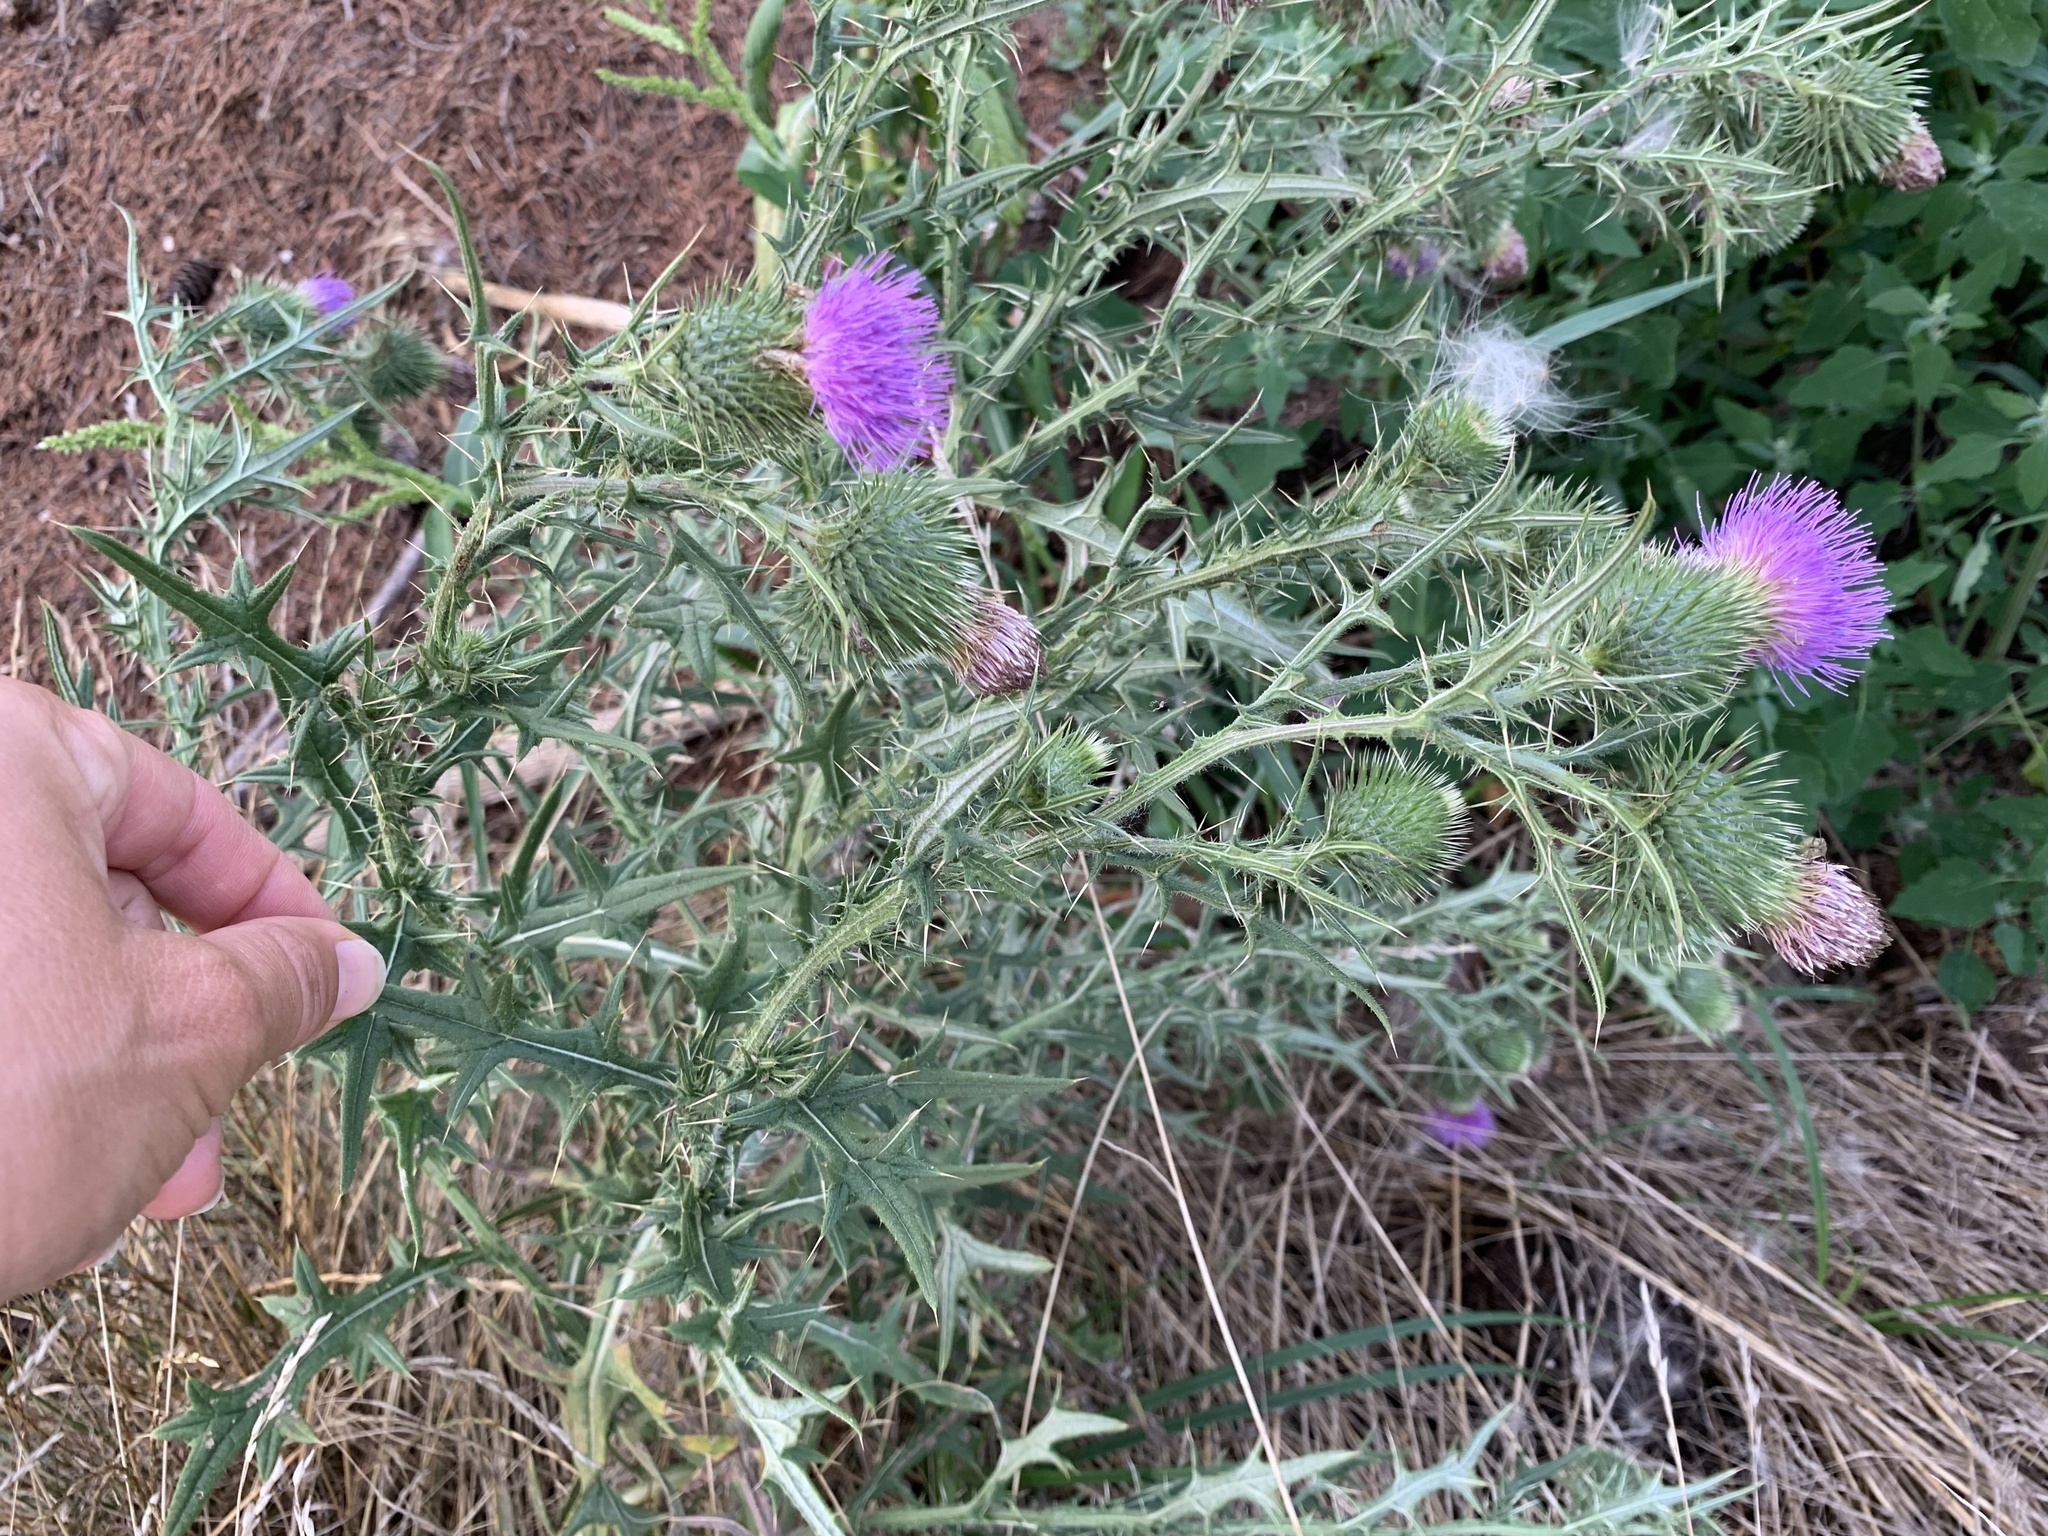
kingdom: Plantae
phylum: Tracheophyta
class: Magnoliopsida
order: Asterales
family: Asteraceae
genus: Cirsium
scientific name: Cirsium vulgare
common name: Bull thistle
